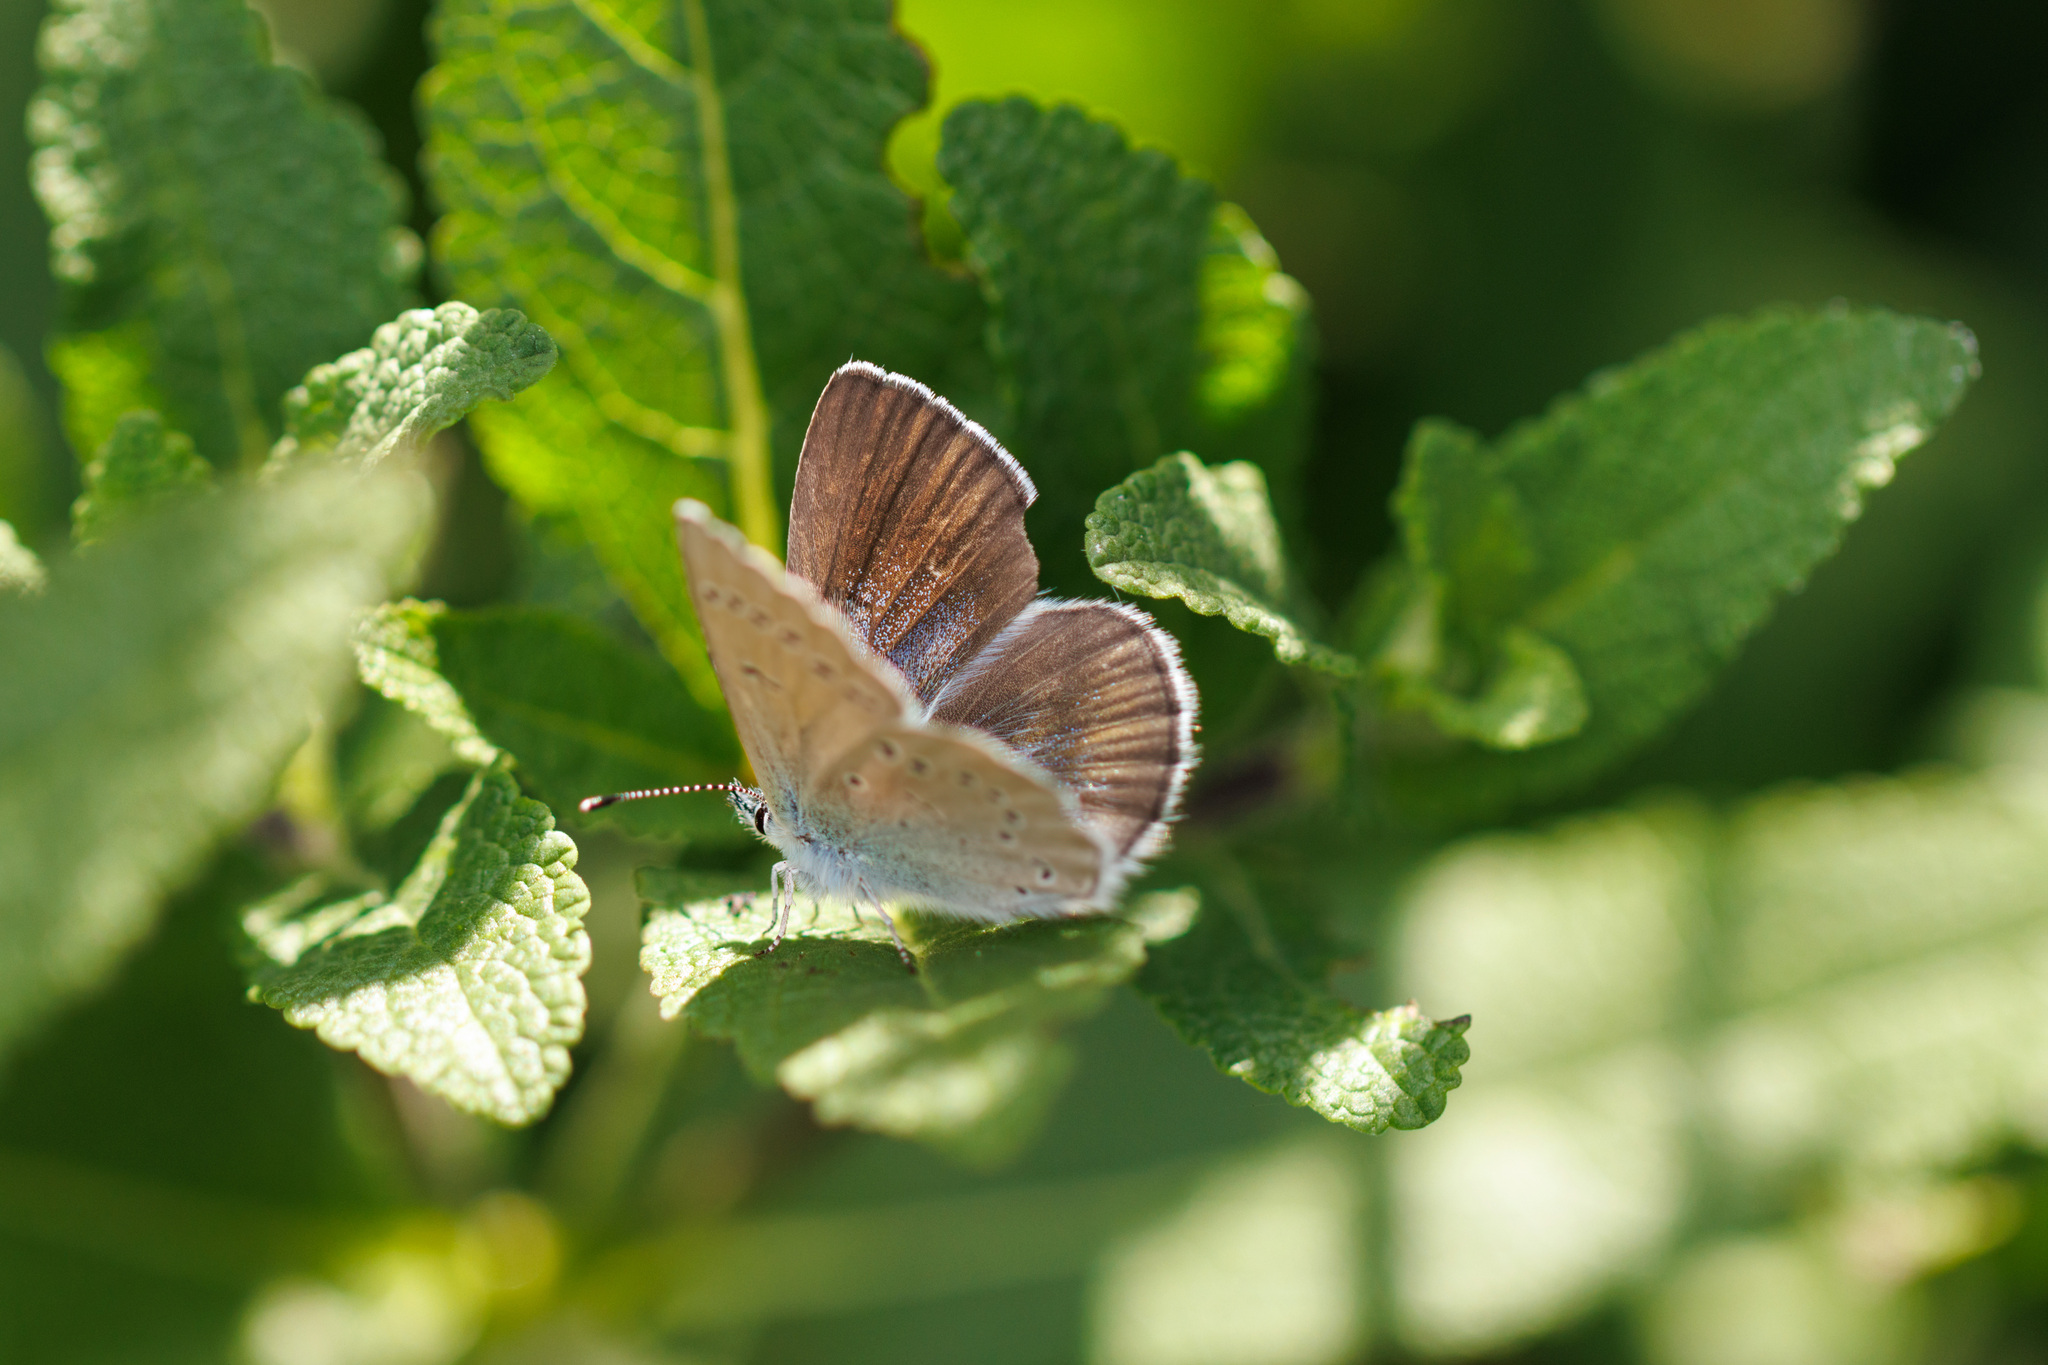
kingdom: Animalia
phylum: Arthropoda
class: Insecta
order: Lepidoptera
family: Lycaenidae
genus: Glaucopsyche
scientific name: Glaucopsyche lygdamus
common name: Silvery blue
